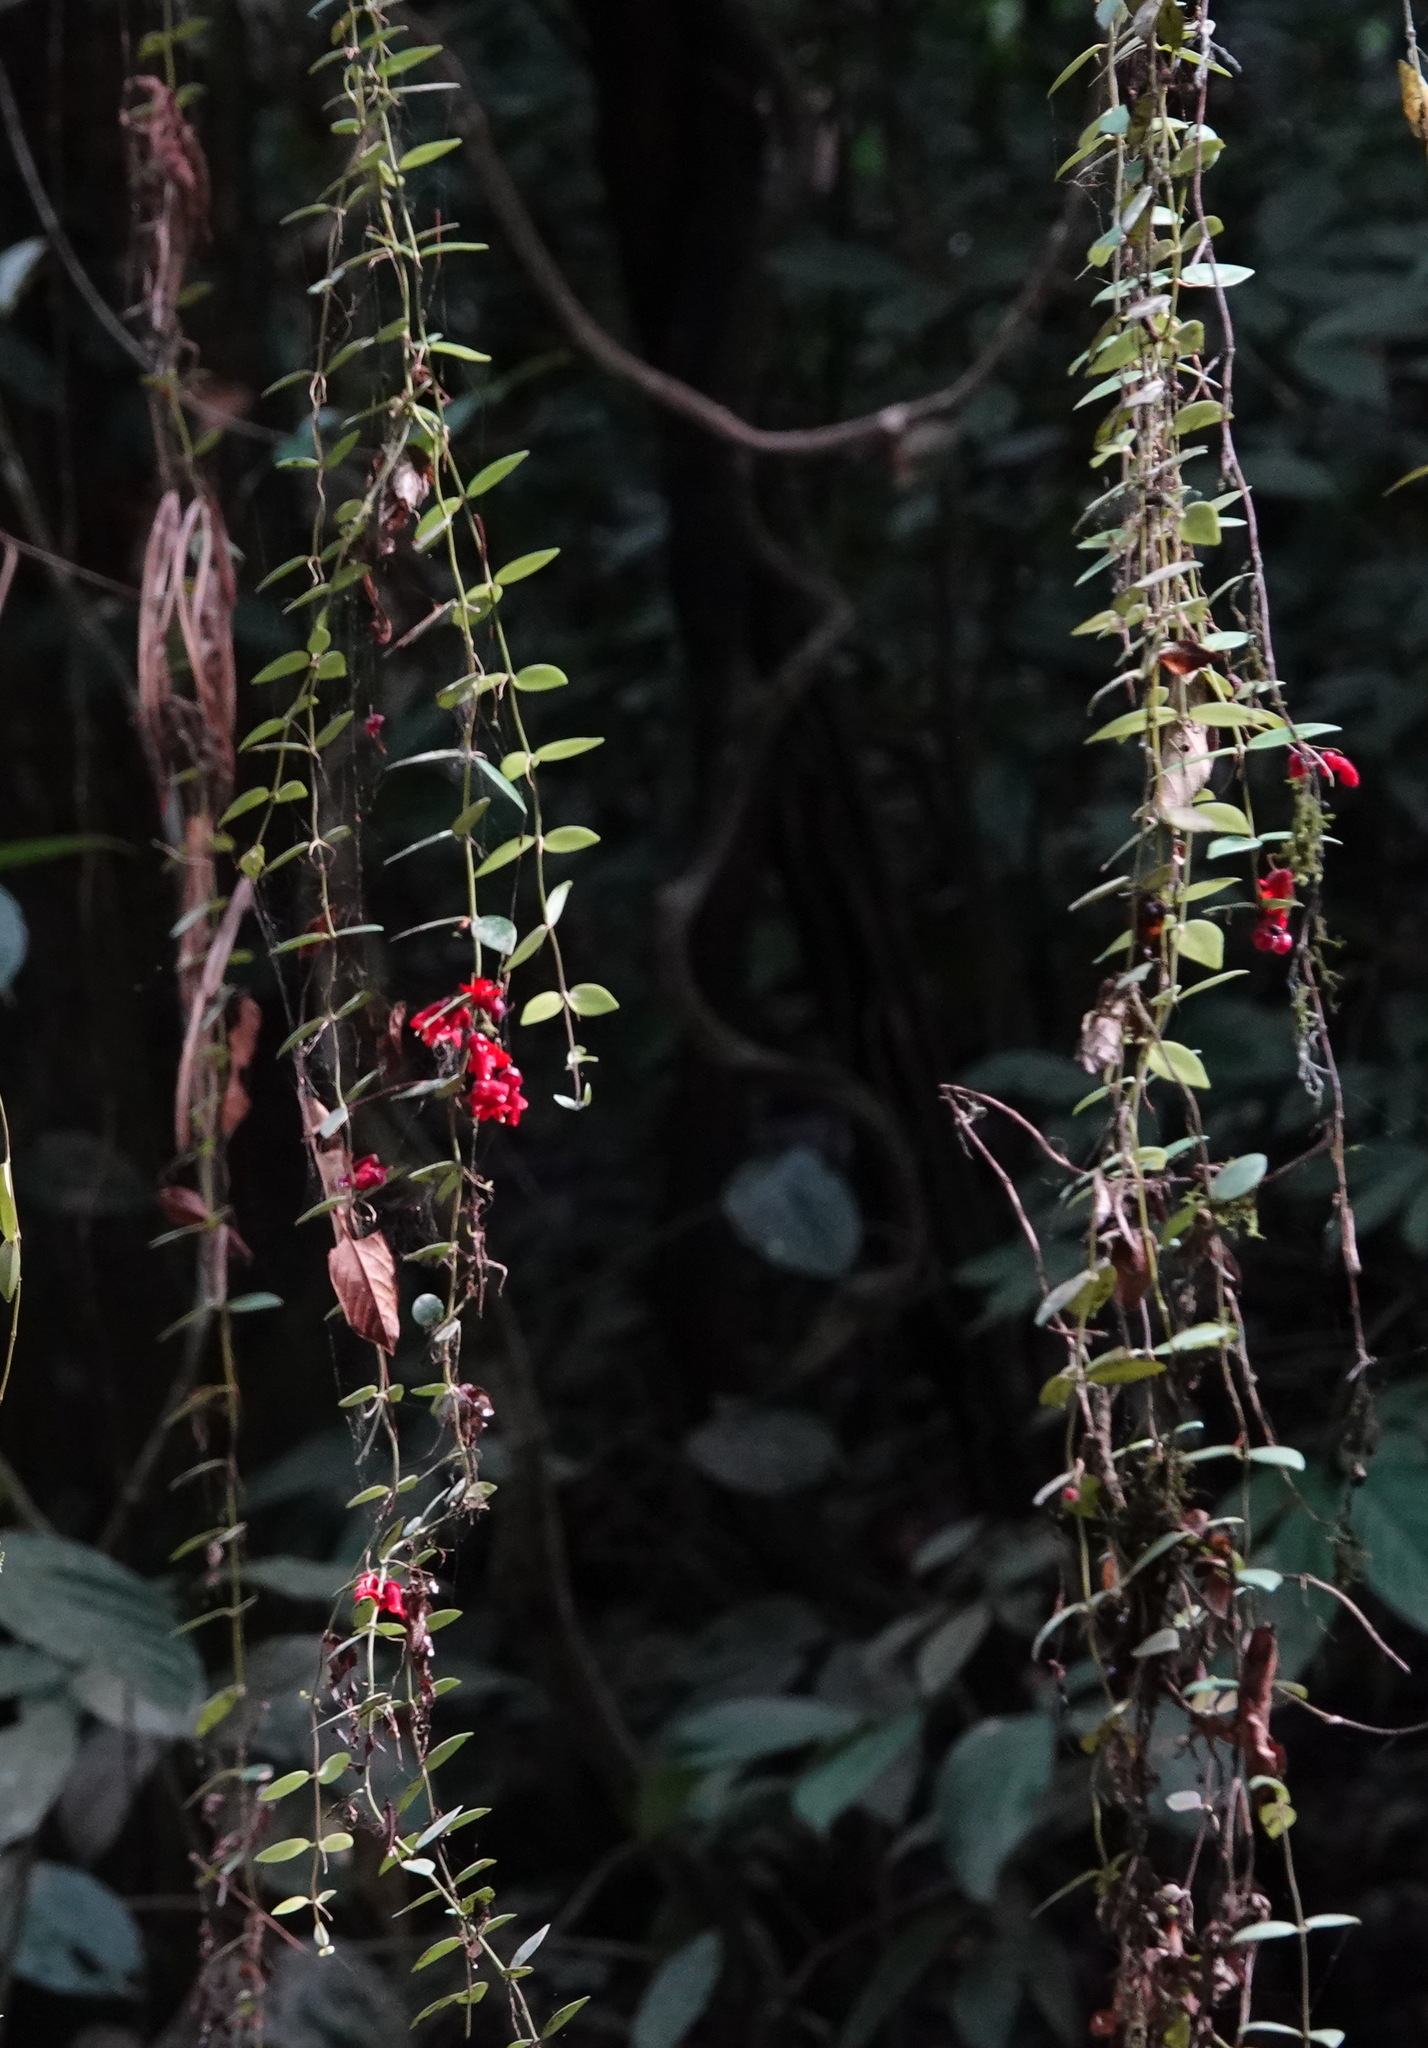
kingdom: Plantae
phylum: Tracheophyta
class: Magnoliopsida
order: Lamiales
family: Gesneriaceae
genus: Aeschynanthus
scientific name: Aeschynanthus tricolor
